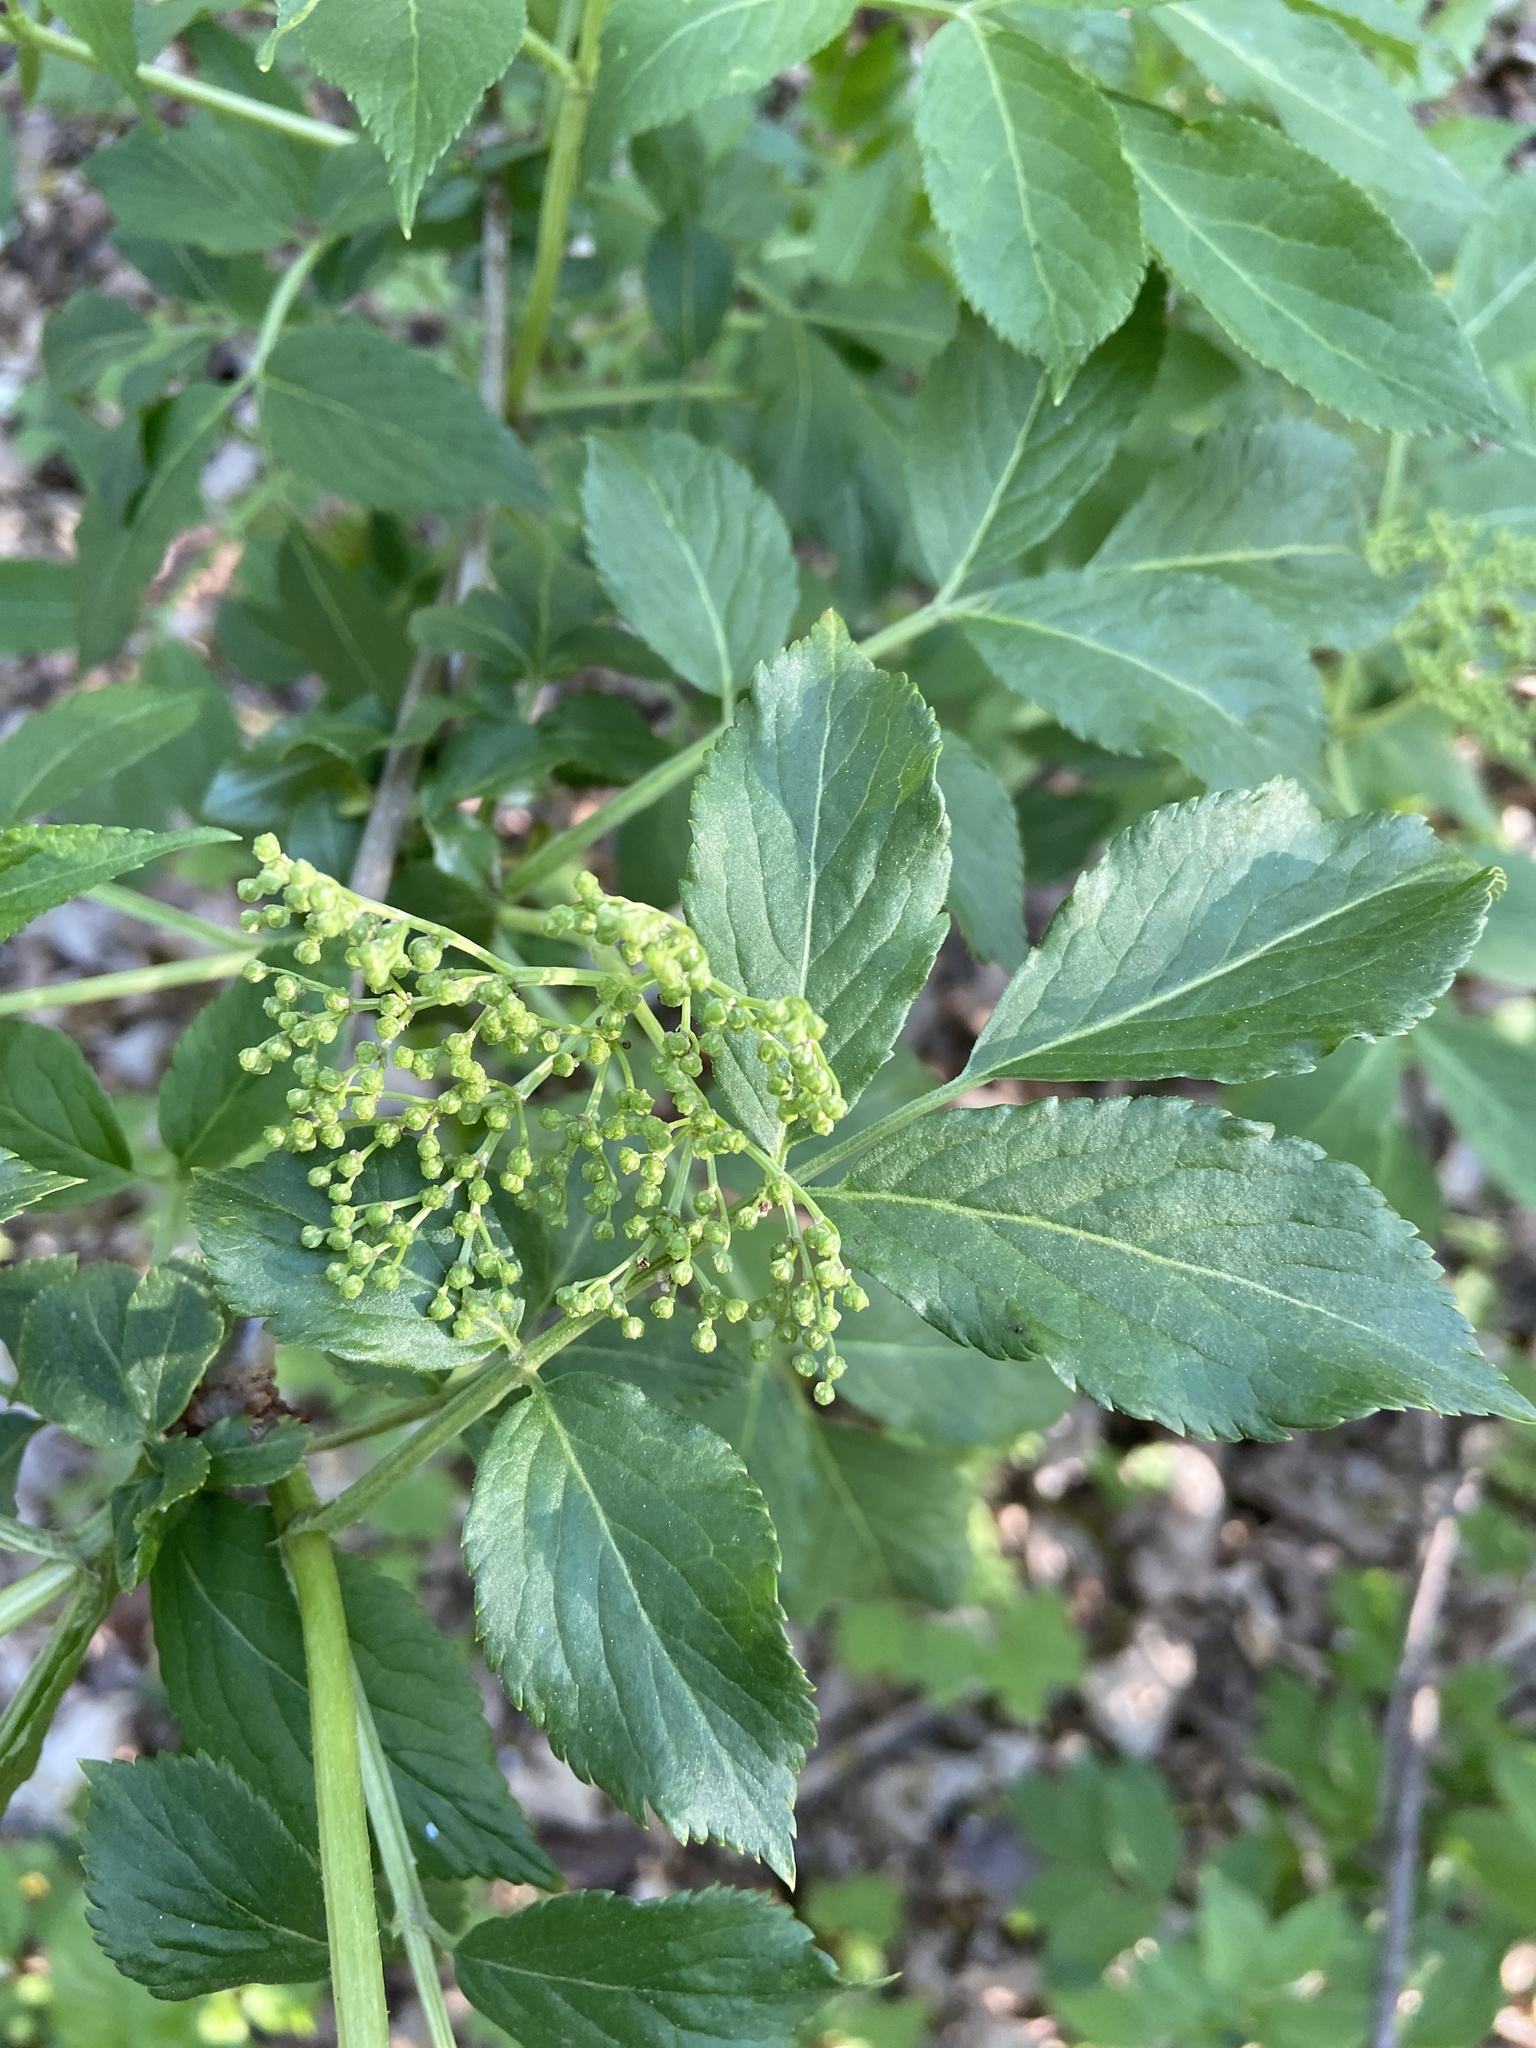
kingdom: Plantae
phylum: Tracheophyta
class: Magnoliopsida
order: Dipsacales
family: Viburnaceae
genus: Sambucus
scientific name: Sambucus nigra
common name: Elder
